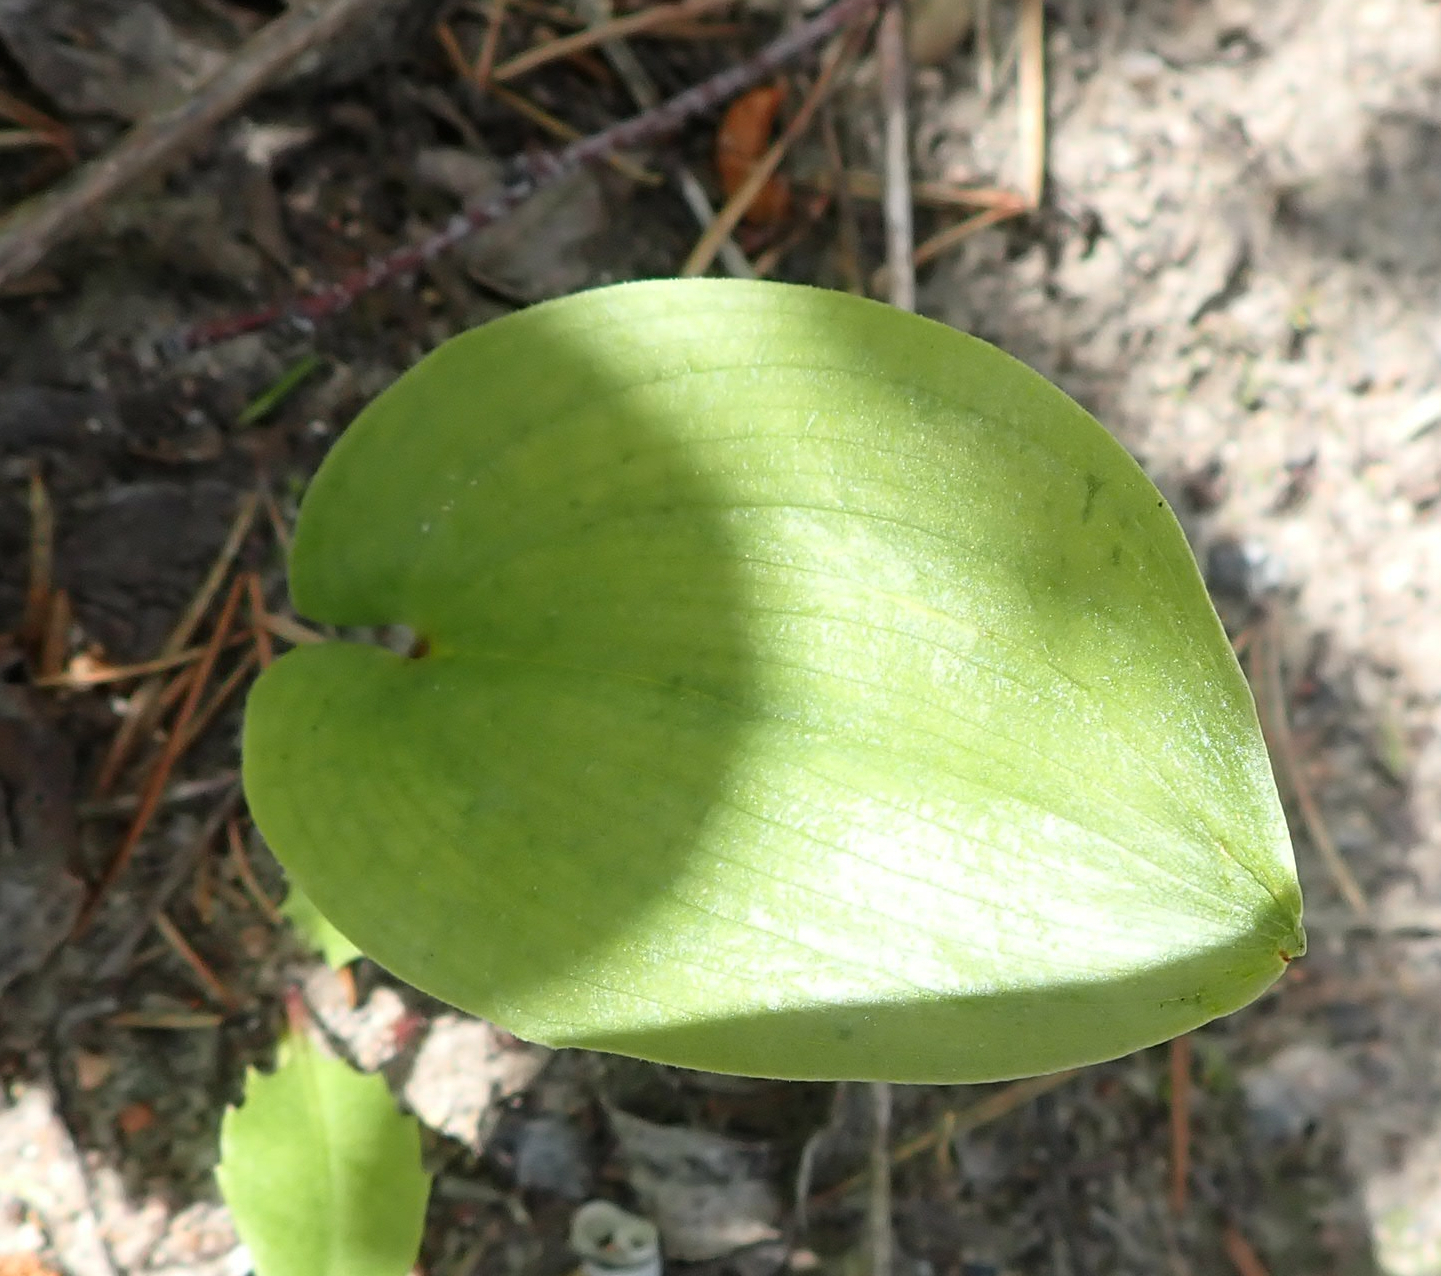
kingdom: Plantae
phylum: Tracheophyta
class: Liliopsida
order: Asparagales
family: Asparagaceae
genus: Maianthemum
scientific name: Maianthemum canadense
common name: False lily-of-the-valley
